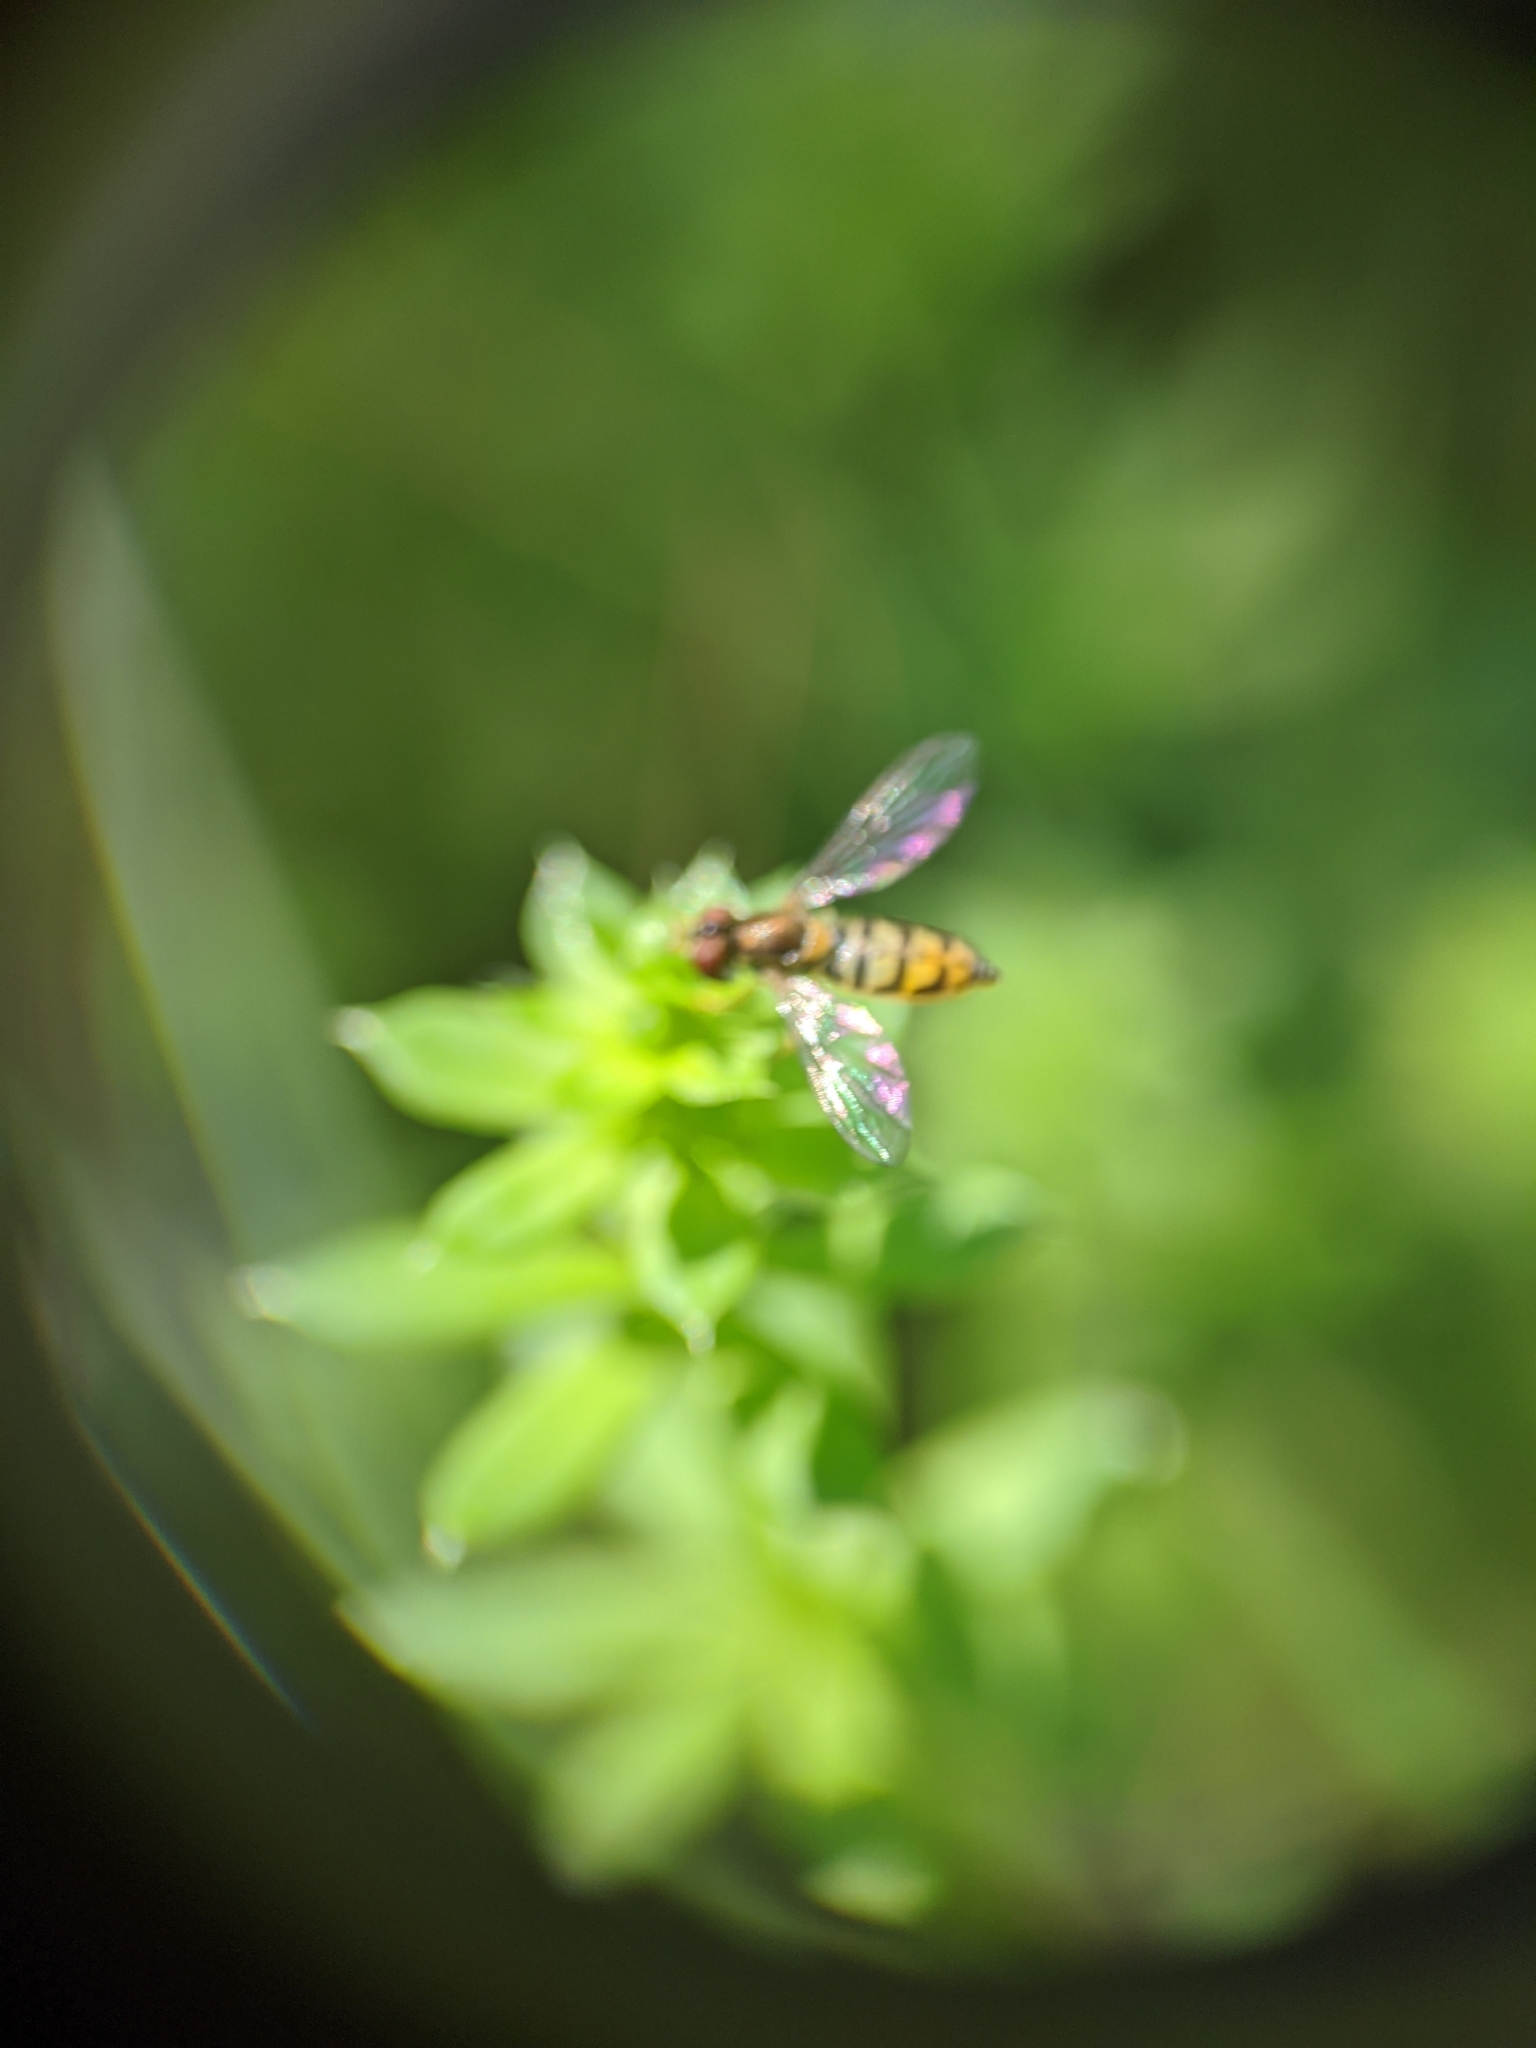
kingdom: Animalia
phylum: Arthropoda
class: Insecta
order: Diptera
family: Syrphidae
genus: Toxomerus
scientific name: Toxomerus marginatus
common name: Syrphid fly
